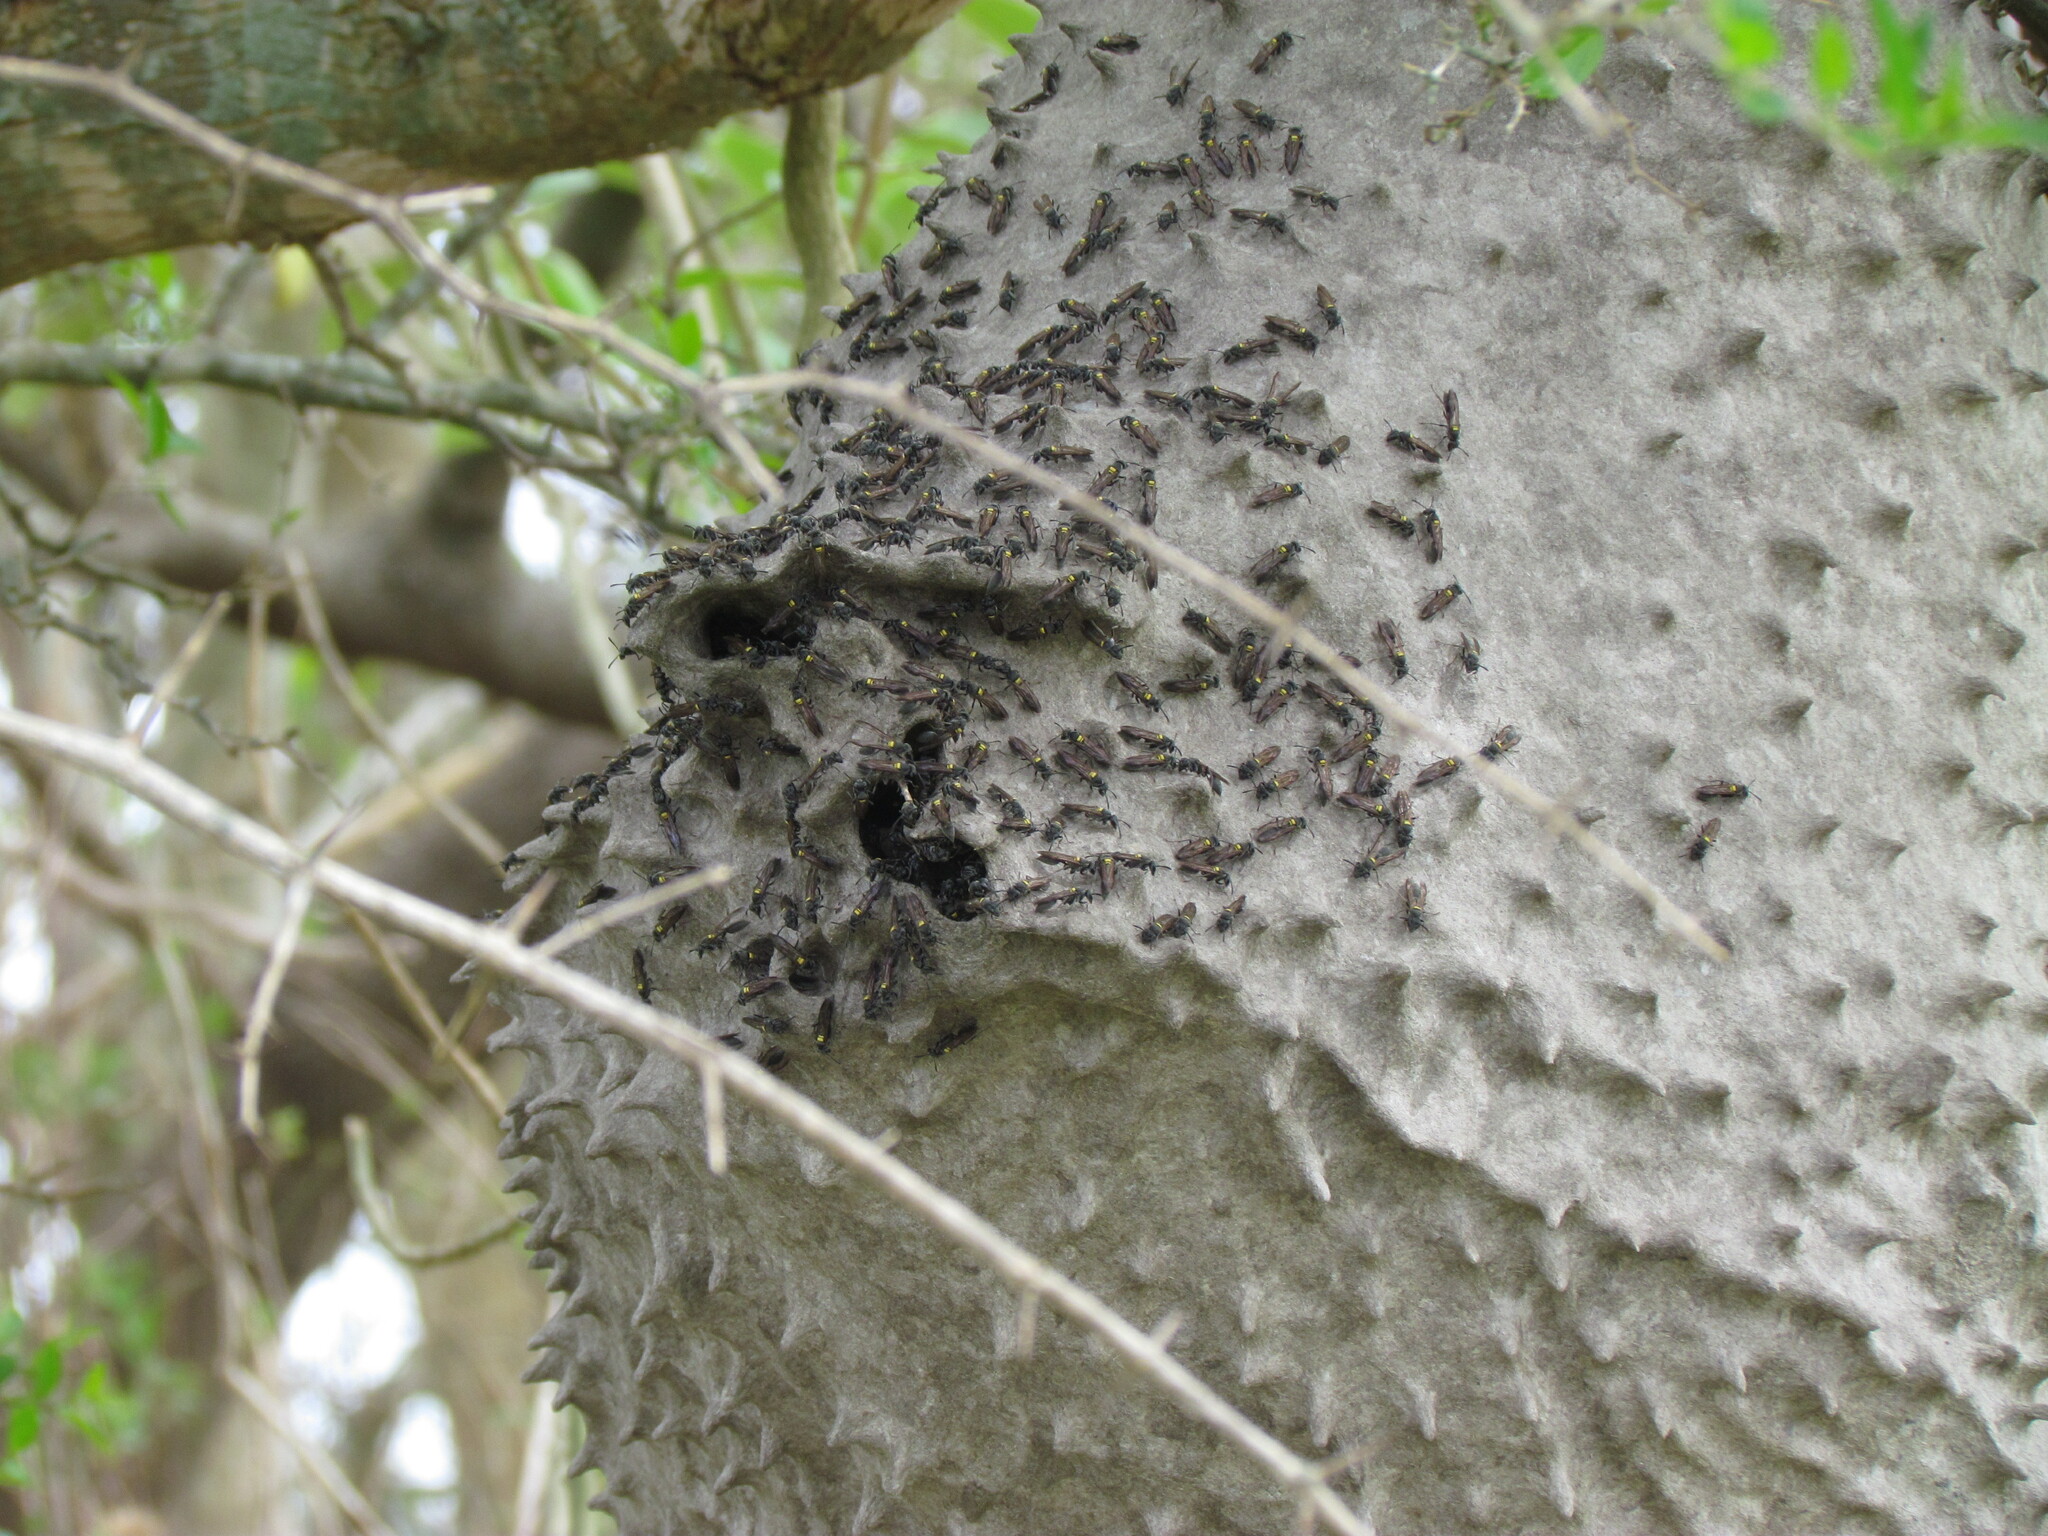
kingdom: Animalia
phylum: Arthropoda
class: Insecta
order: Hymenoptera
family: Eumenidae
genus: Polybia
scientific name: Polybia scutellaris
